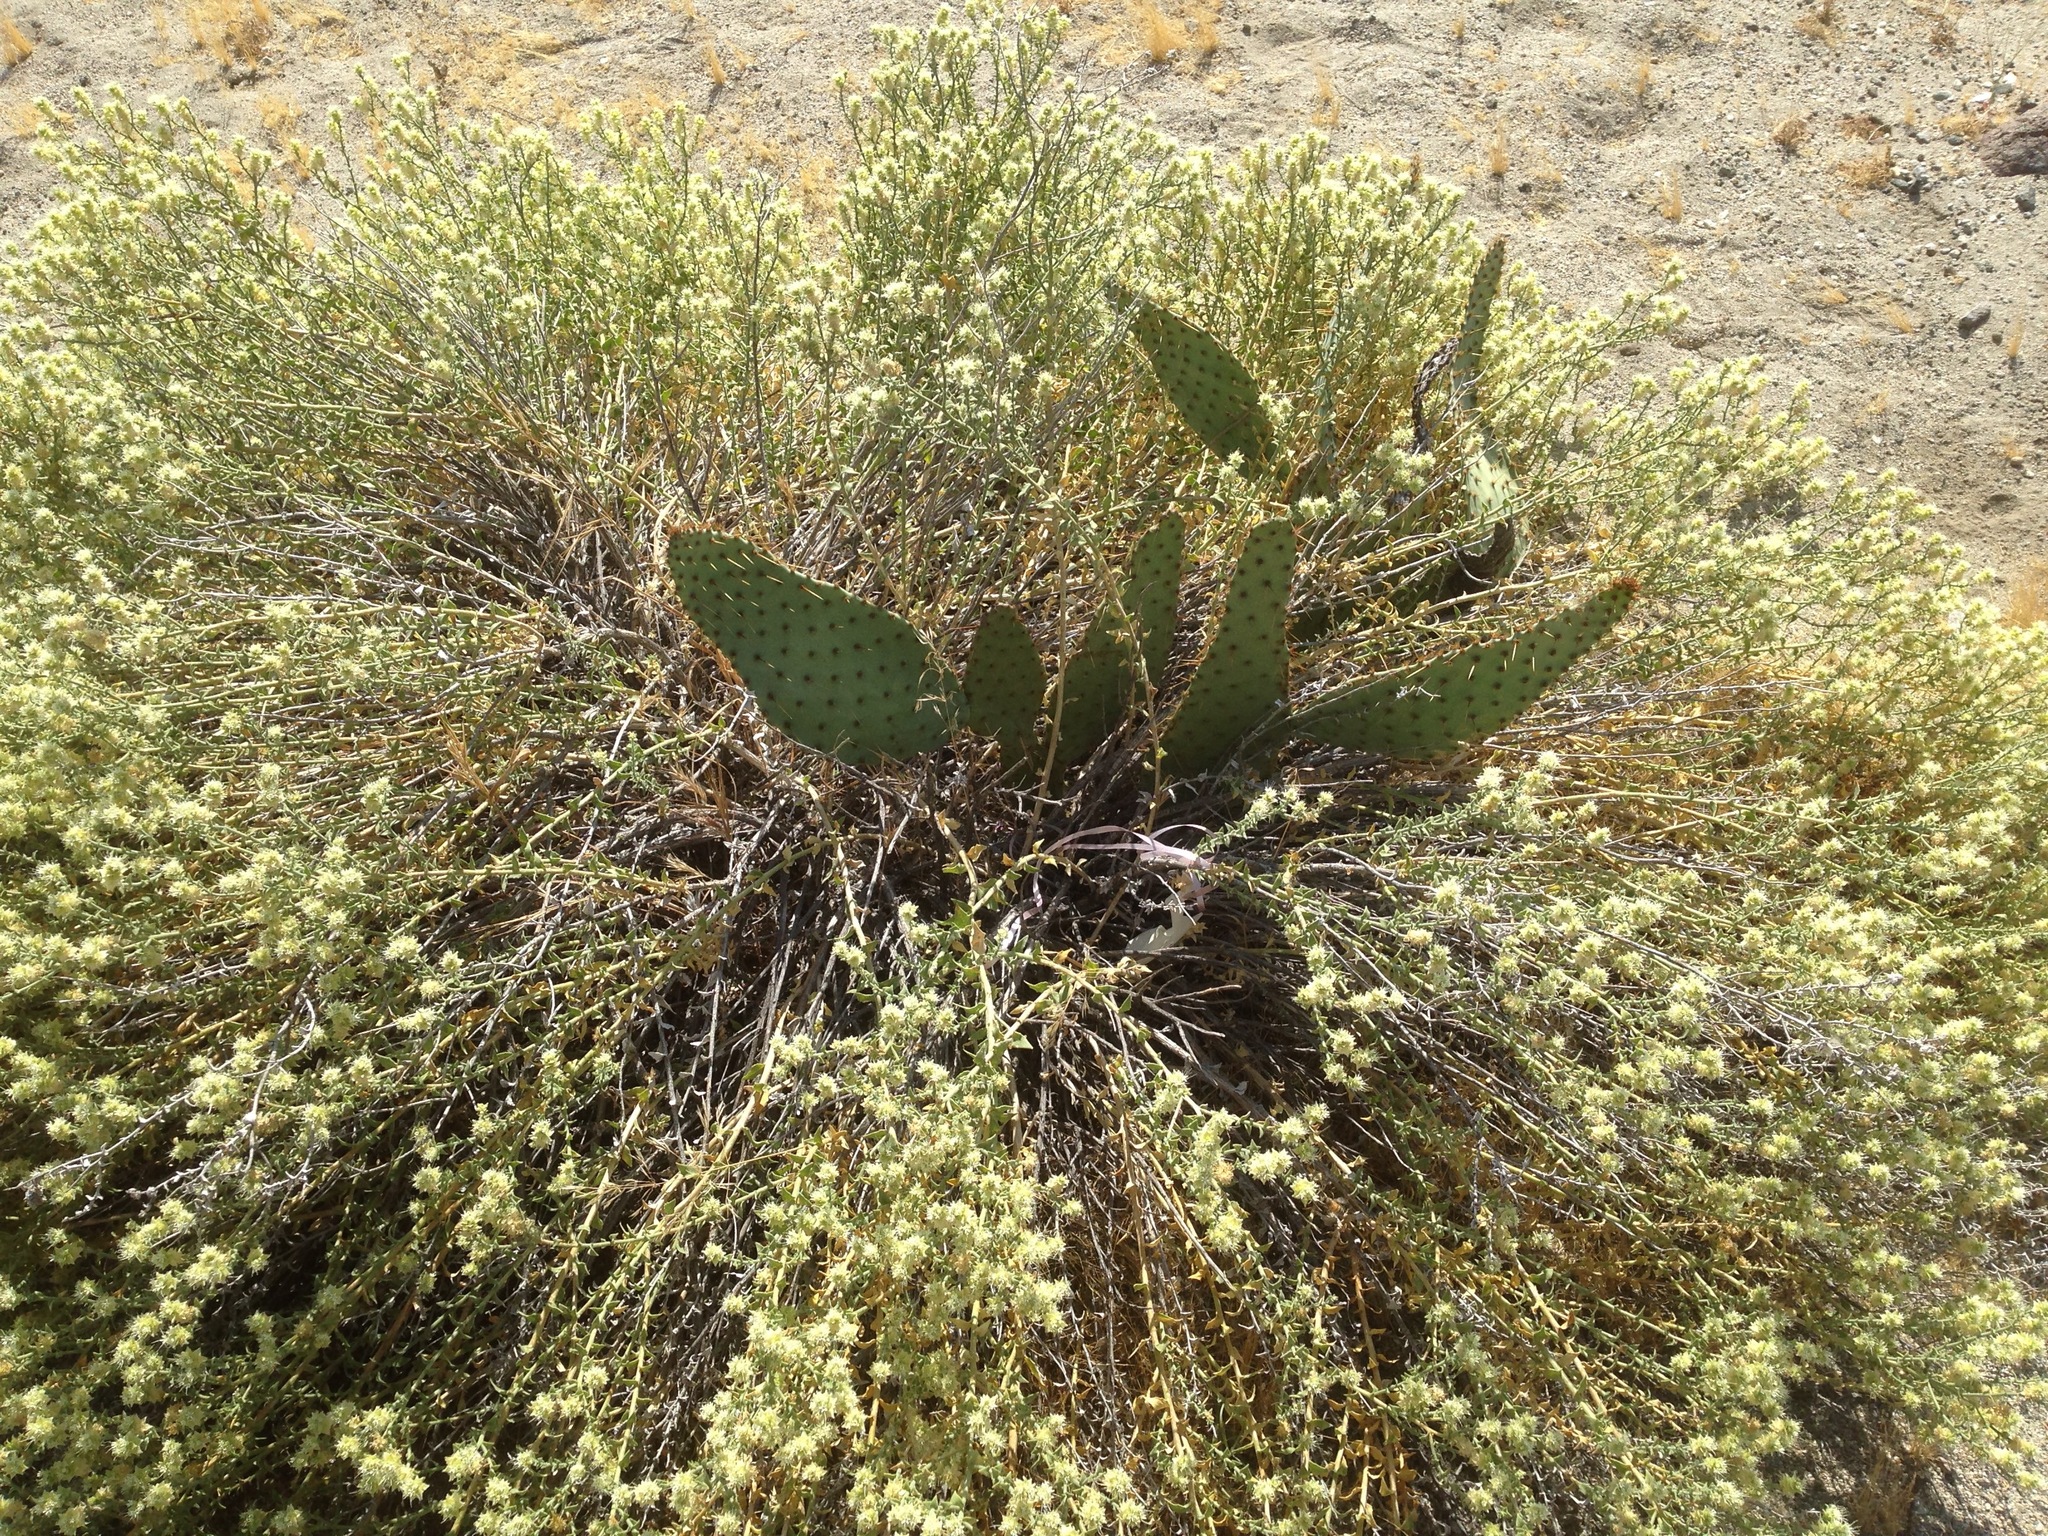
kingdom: Plantae
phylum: Tracheophyta
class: Magnoliopsida
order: Cornales
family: Loasaceae
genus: Petalonyx
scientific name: Petalonyx thurberi
